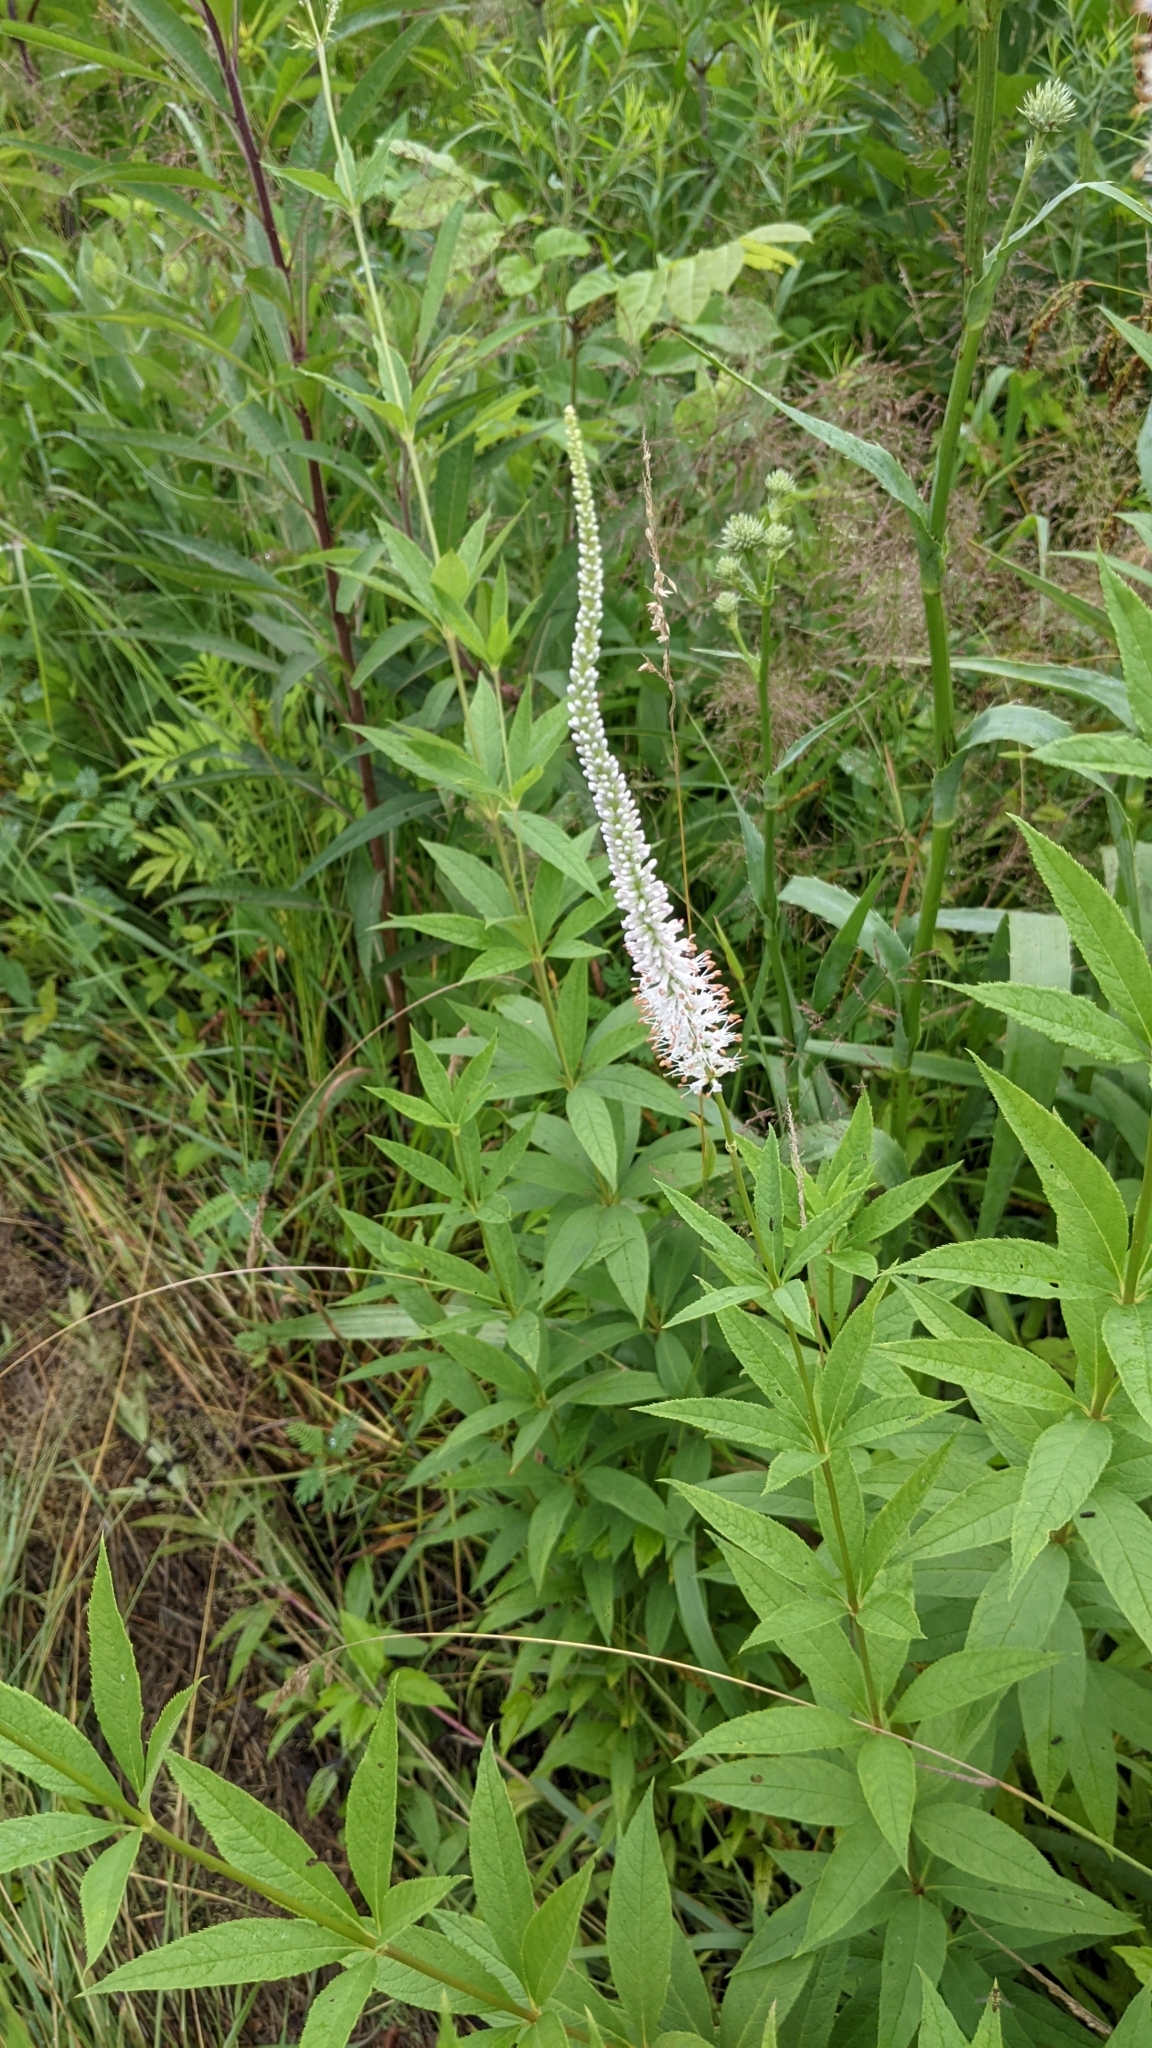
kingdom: Plantae
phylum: Tracheophyta
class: Magnoliopsida
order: Lamiales
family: Plantaginaceae
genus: Veronicastrum
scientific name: Veronicastrum virginicum
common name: Blackroot
